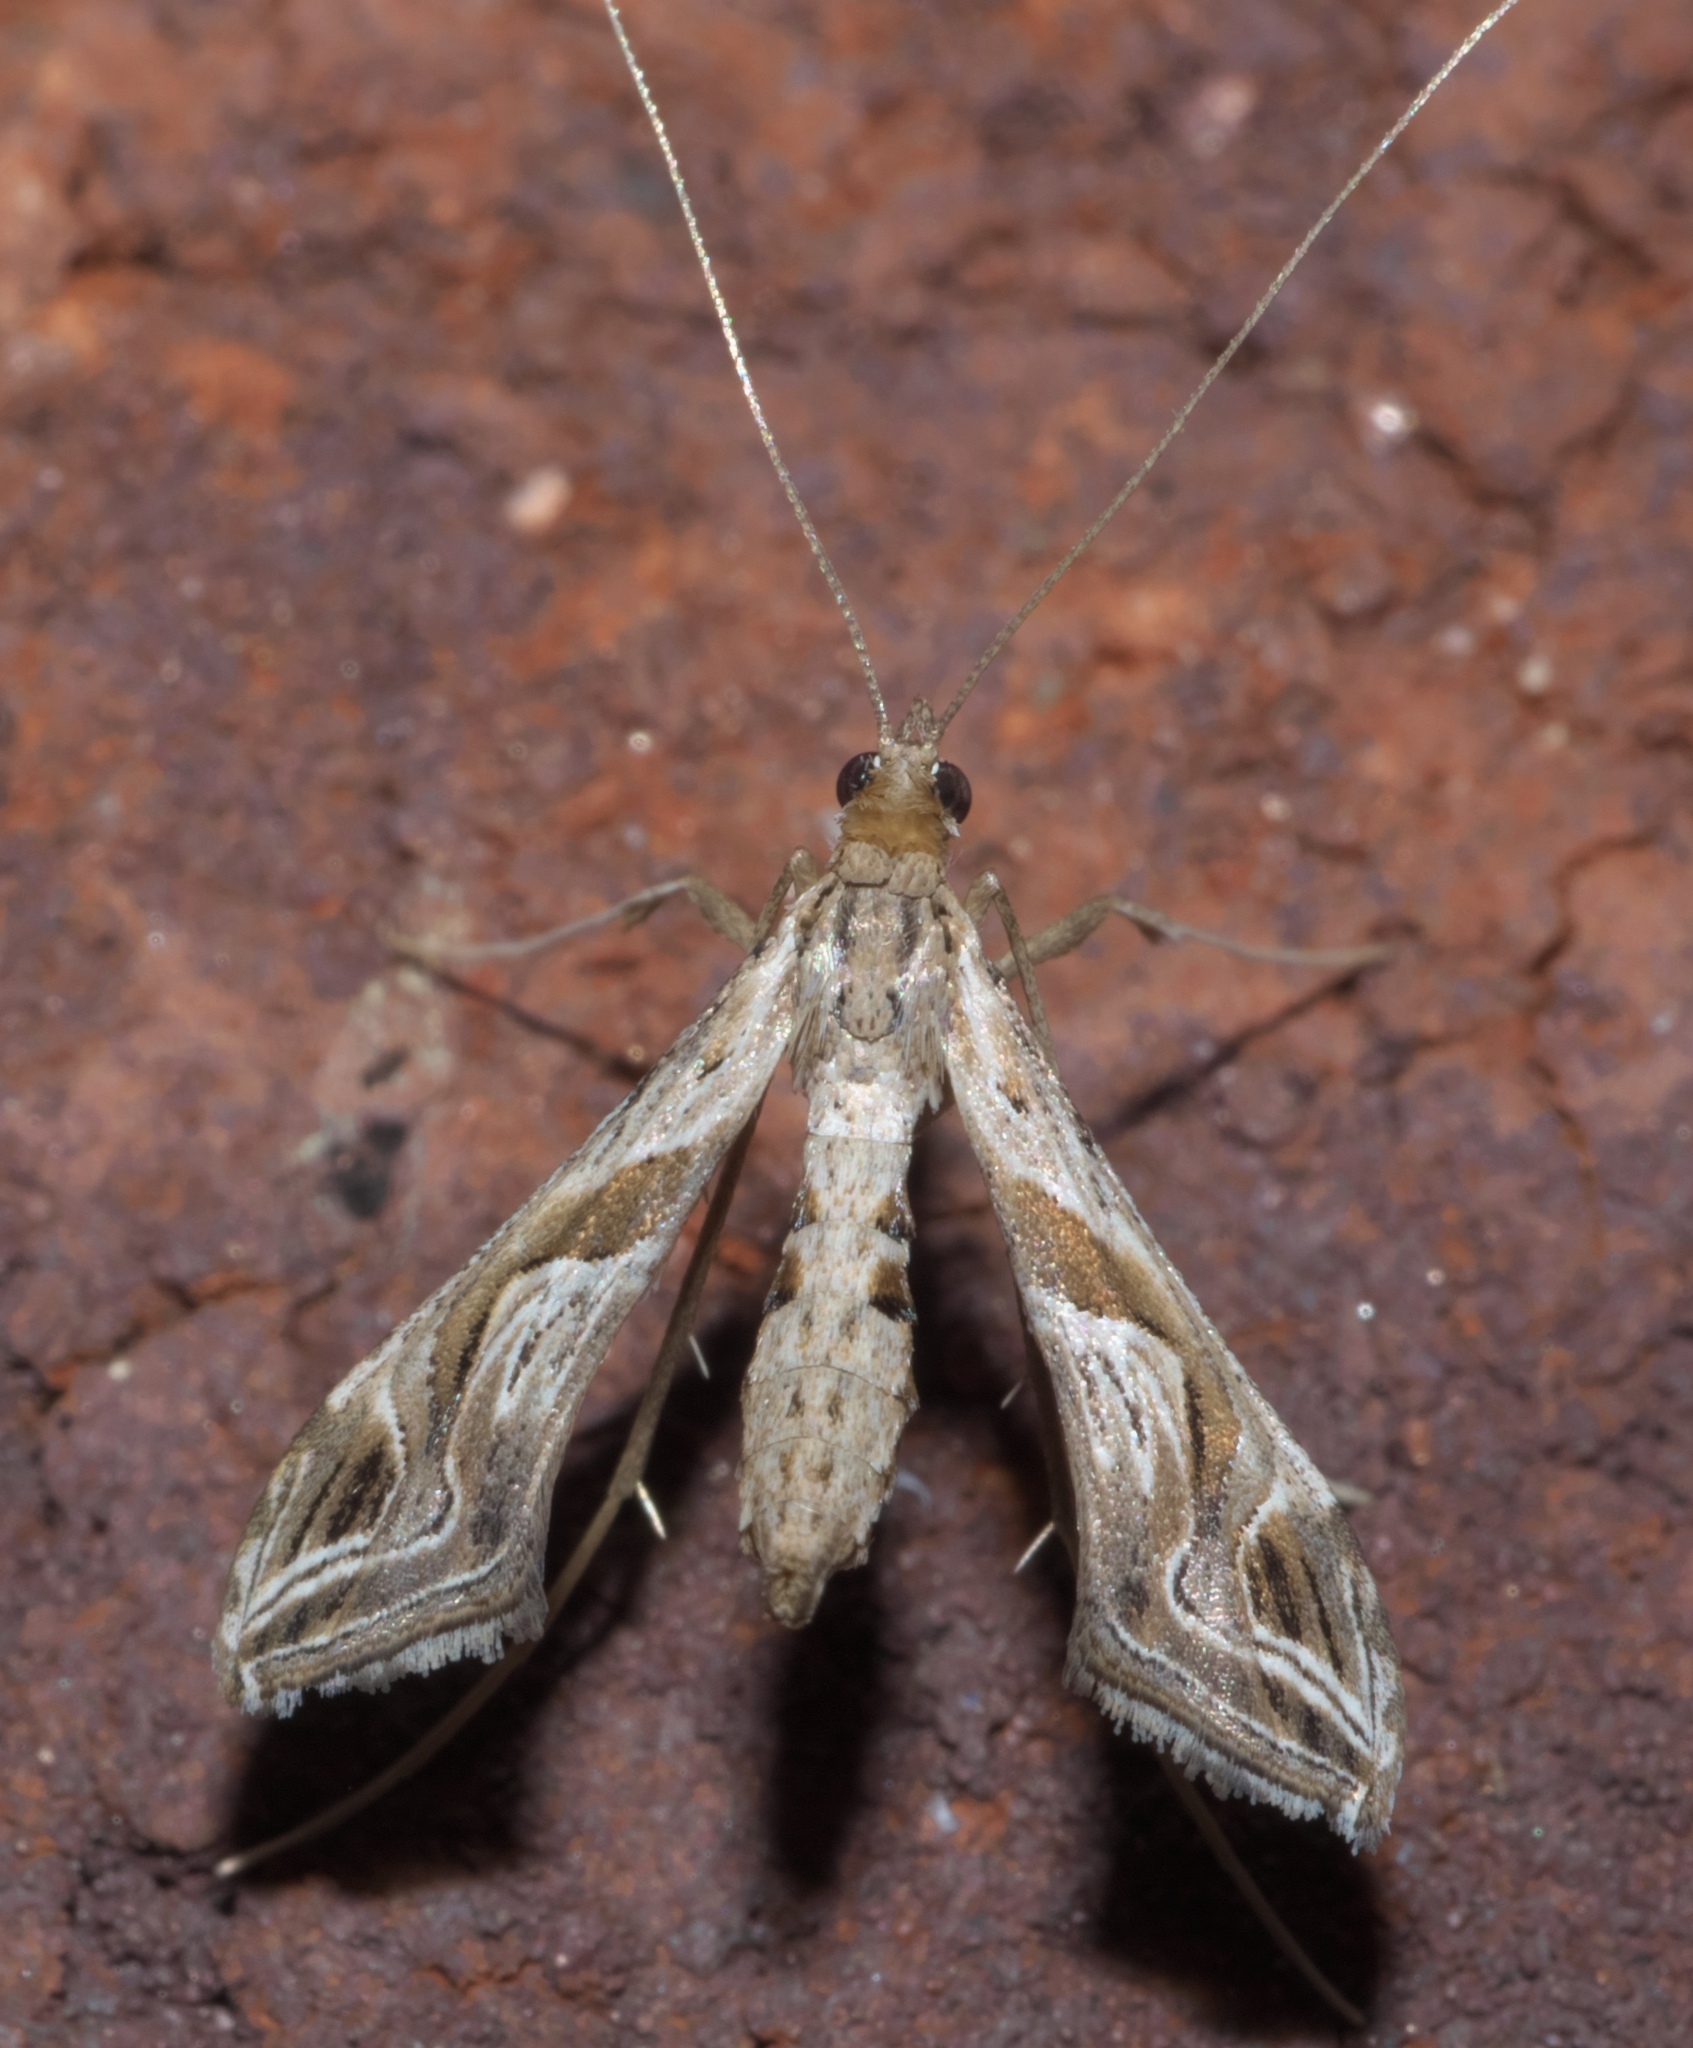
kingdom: Animalia
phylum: Arthropoda
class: Insecta
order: Lepidoptera
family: Crambidae
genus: Lineodes
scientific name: Lineodes integra
